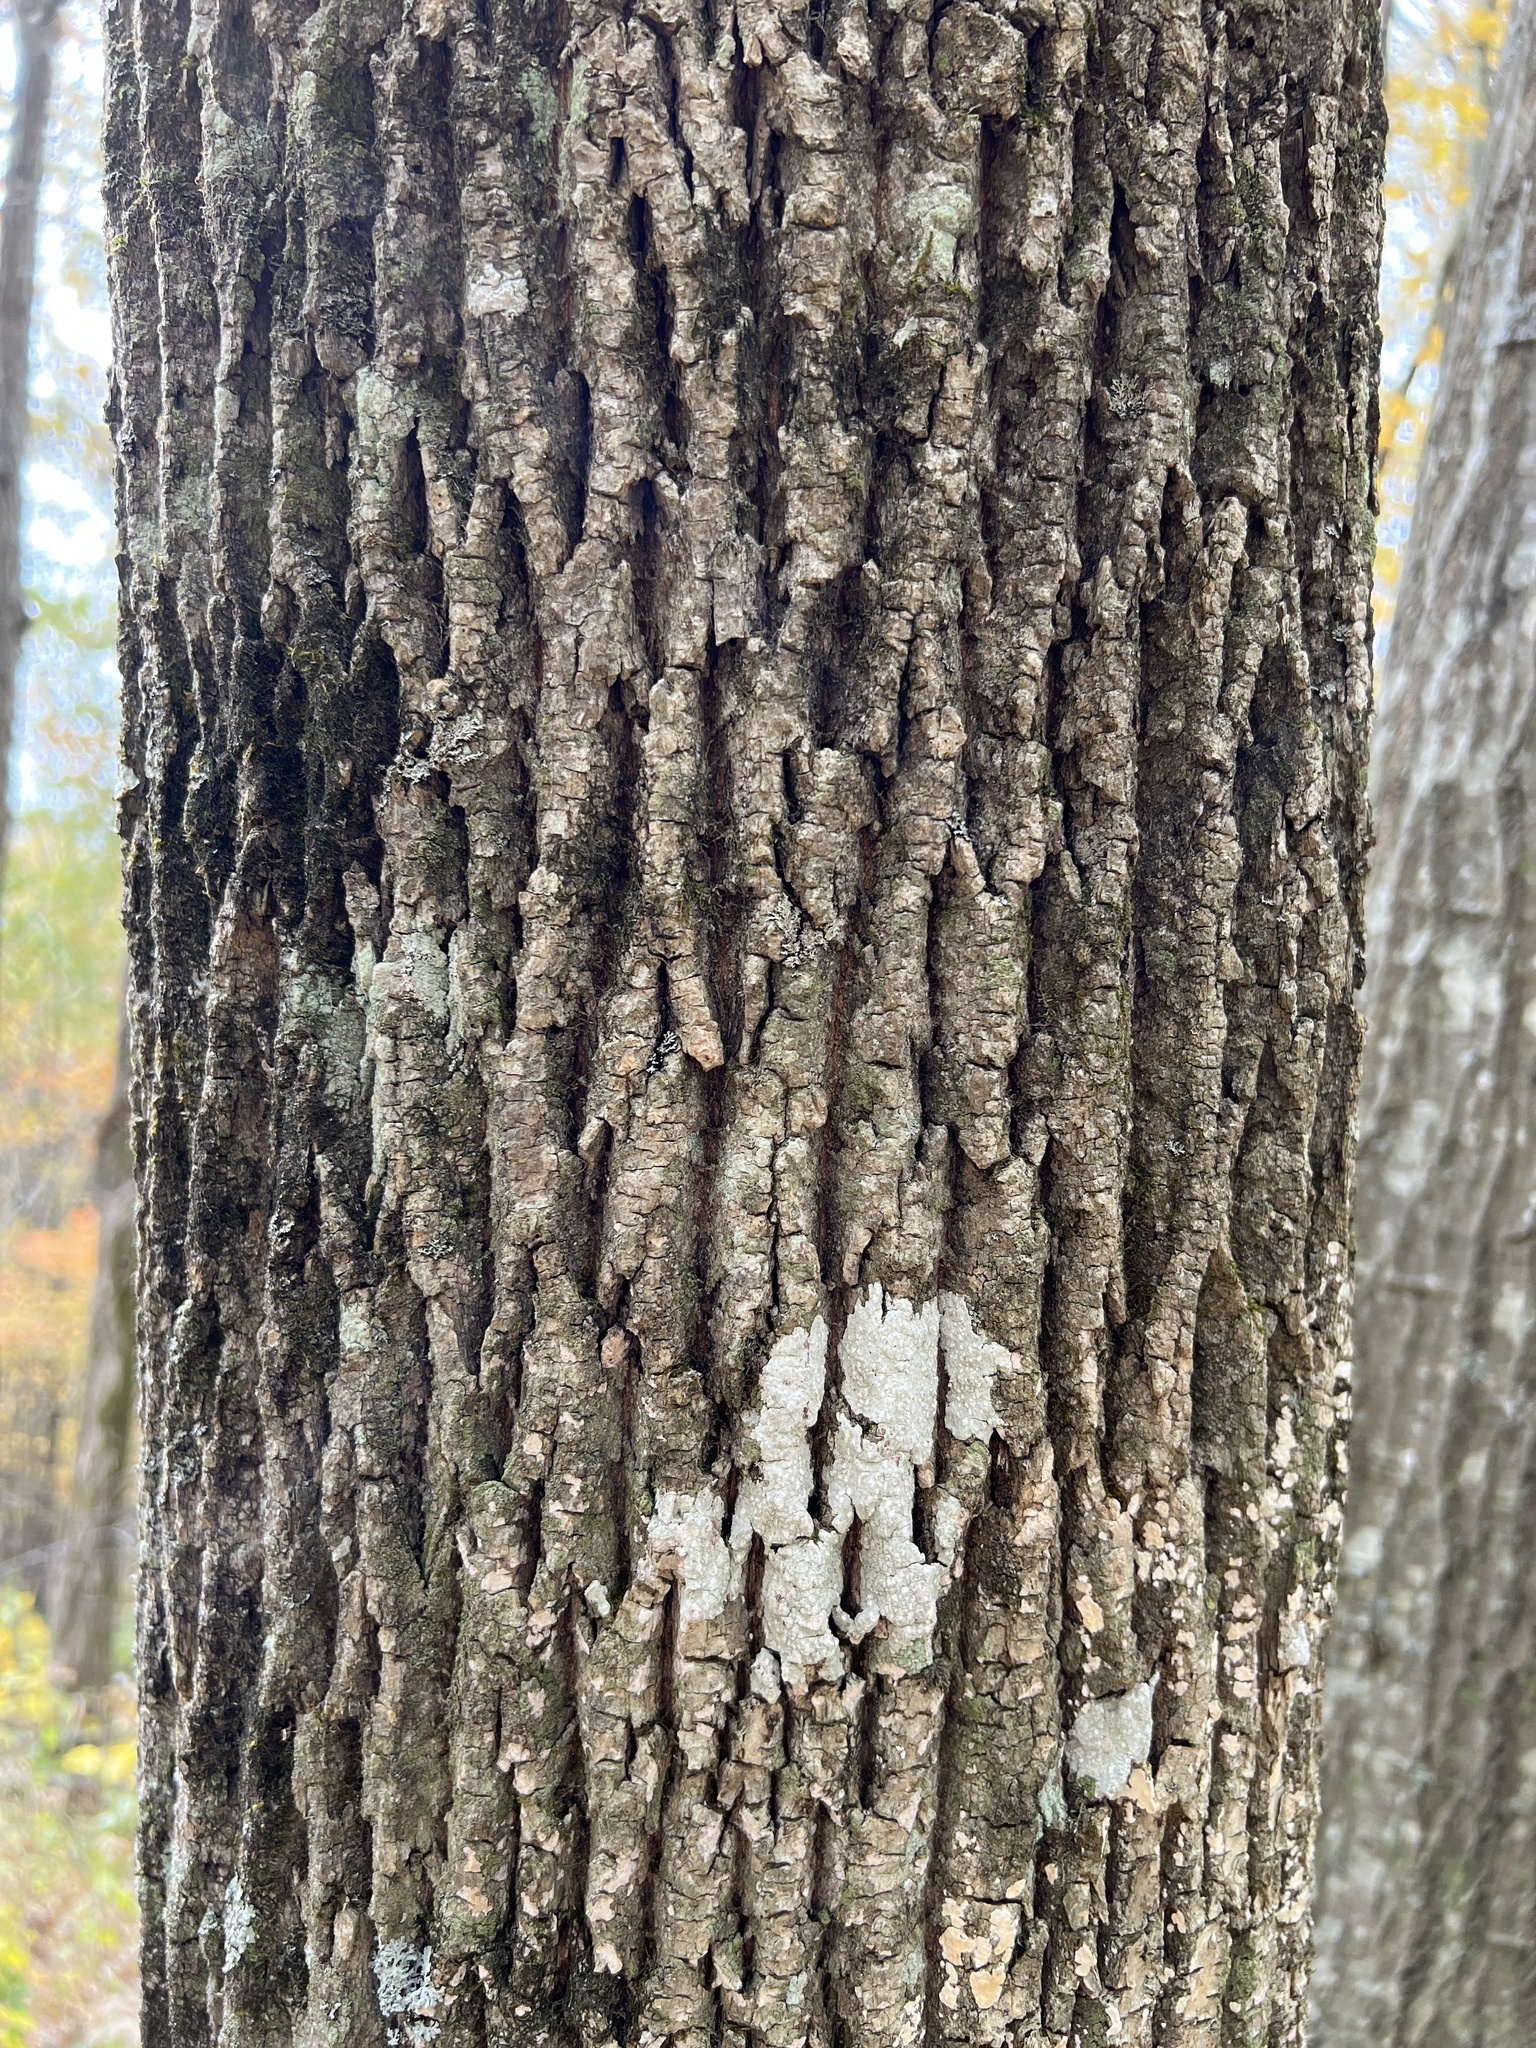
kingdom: Plantae
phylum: Tracheophyta
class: Magnoliopsida
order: Lamiales
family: Oleaceae
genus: Fraxinus
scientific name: Fraxinus americana
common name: White ash
